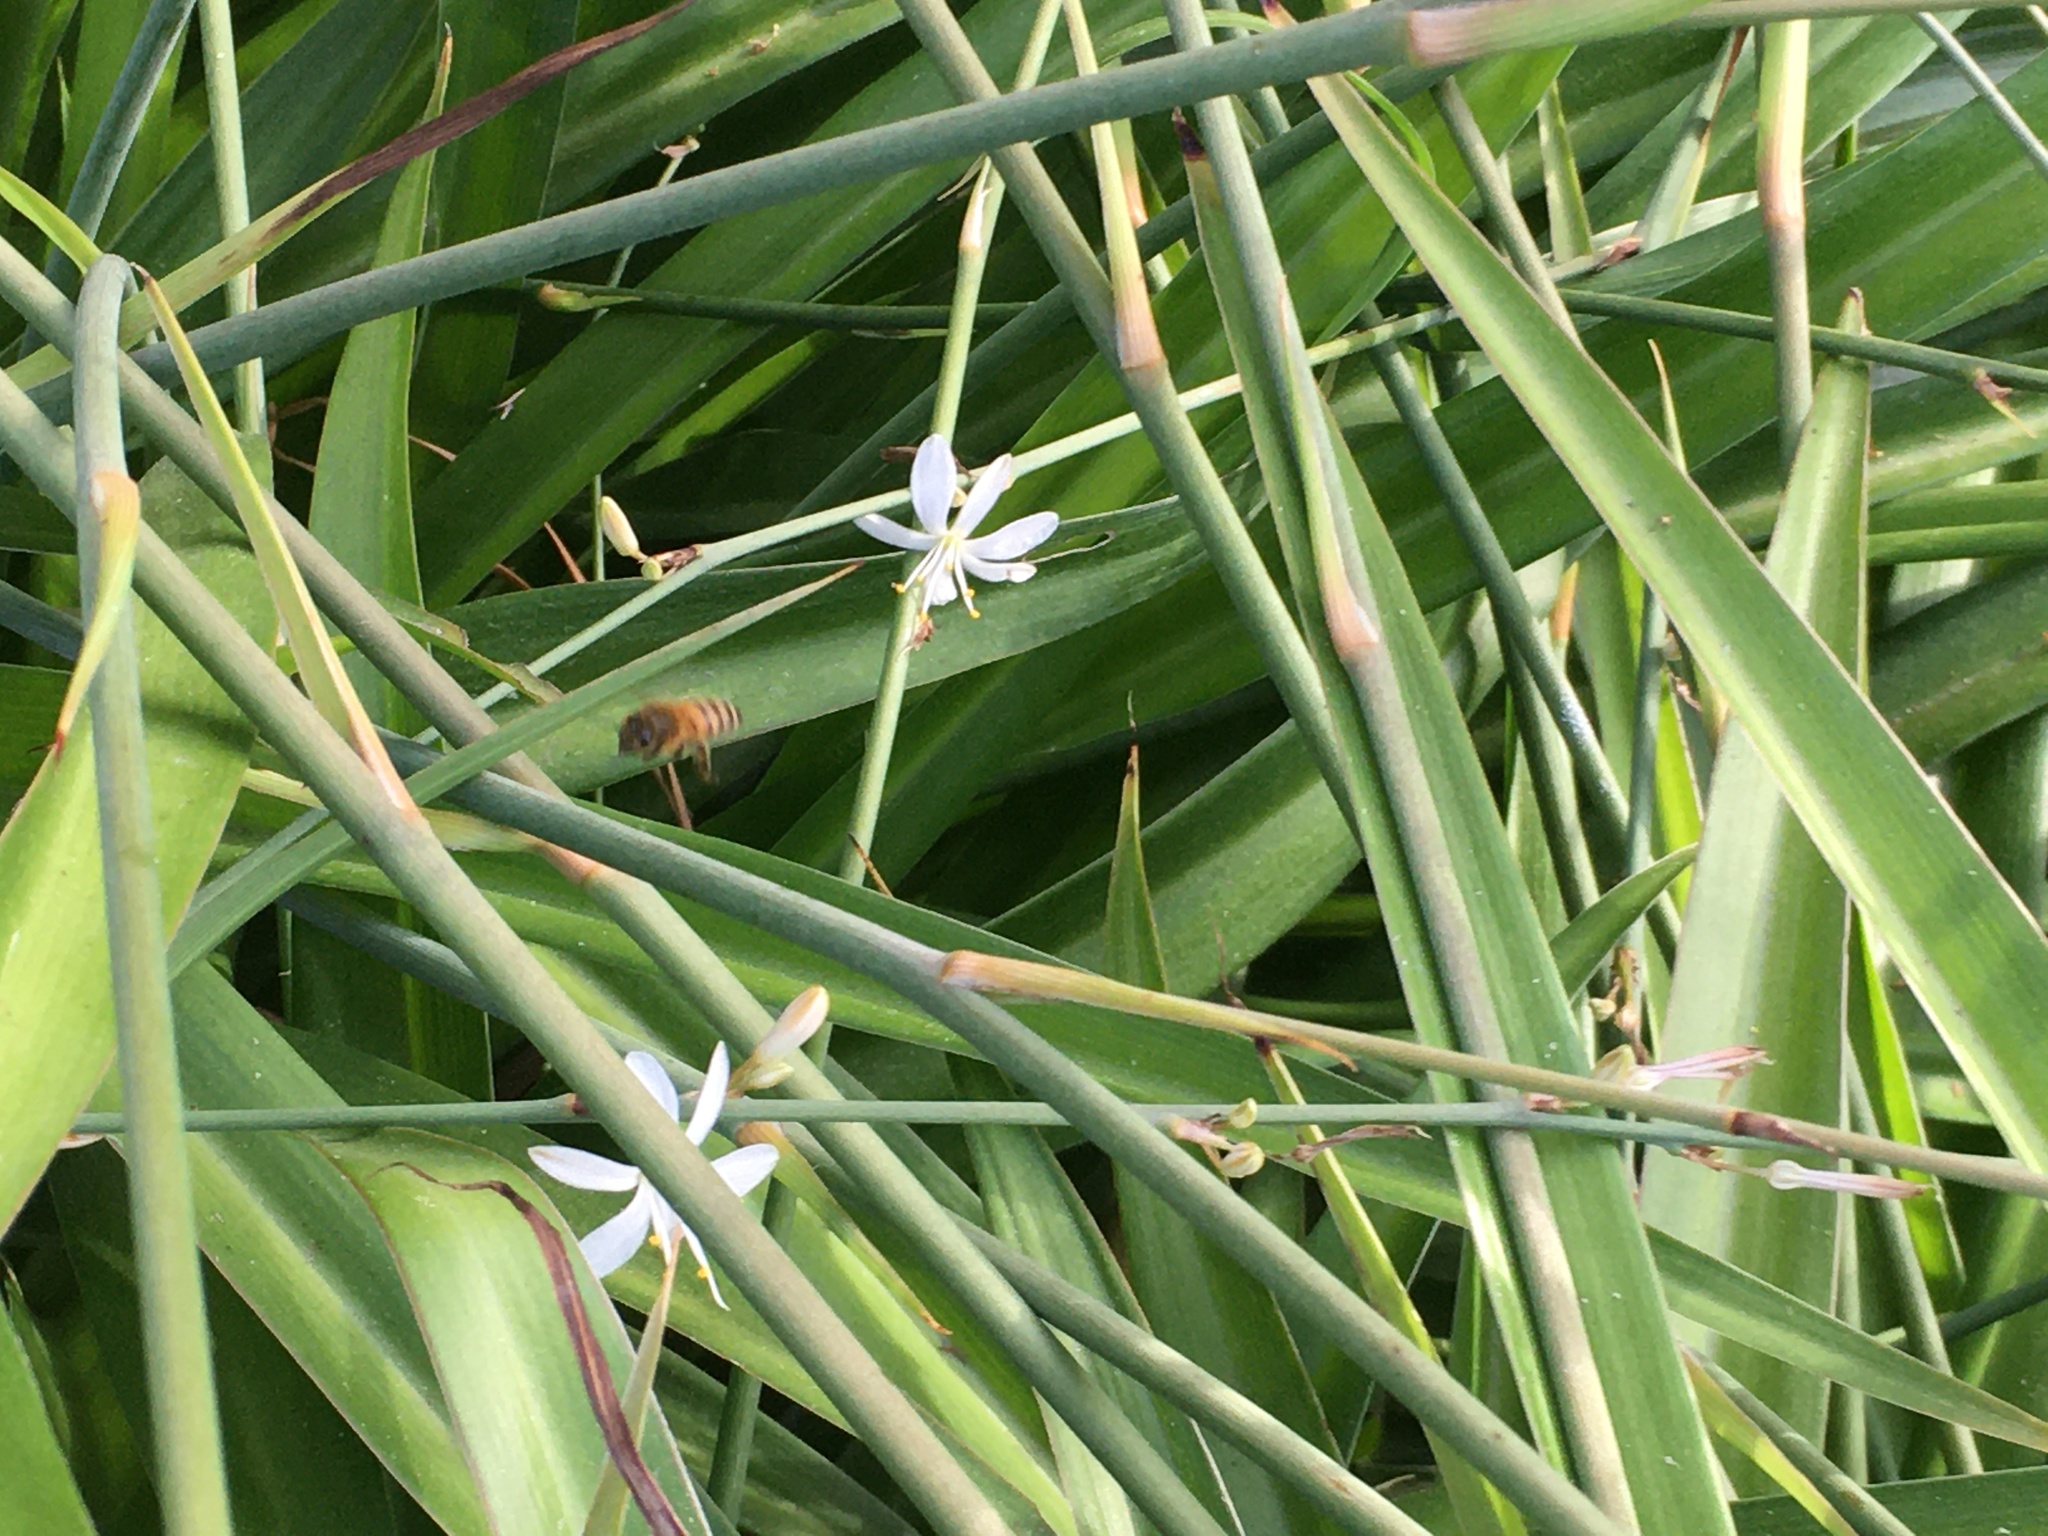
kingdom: Animalia
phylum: Arthropoda
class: Insecta
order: Hymenoptera
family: Apidae
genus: Apis
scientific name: Apis mellifera
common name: Honey bee
